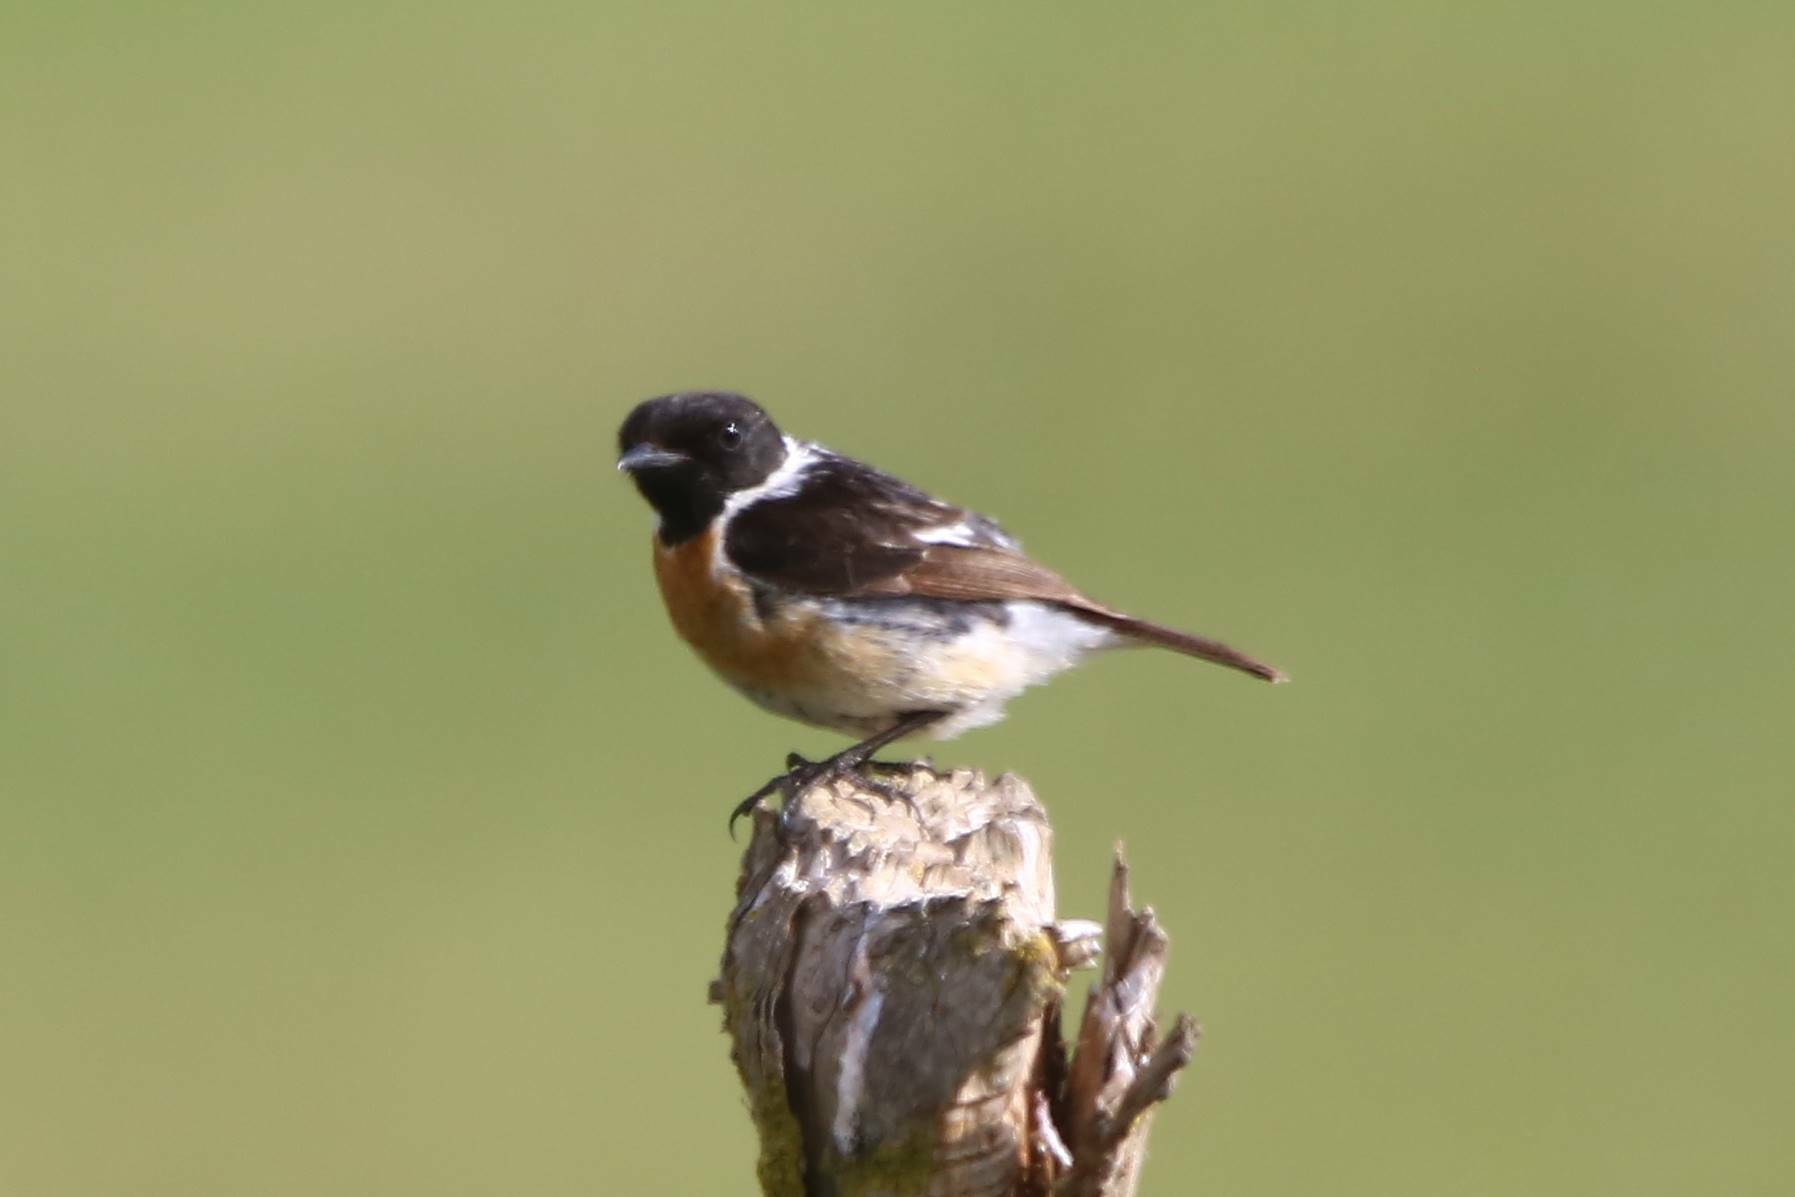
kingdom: Animalia
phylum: Chordata
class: Aves
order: Passeriformes
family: Muscicapidae
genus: Saxicola
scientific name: Saxicola rubicola
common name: European stonechat
